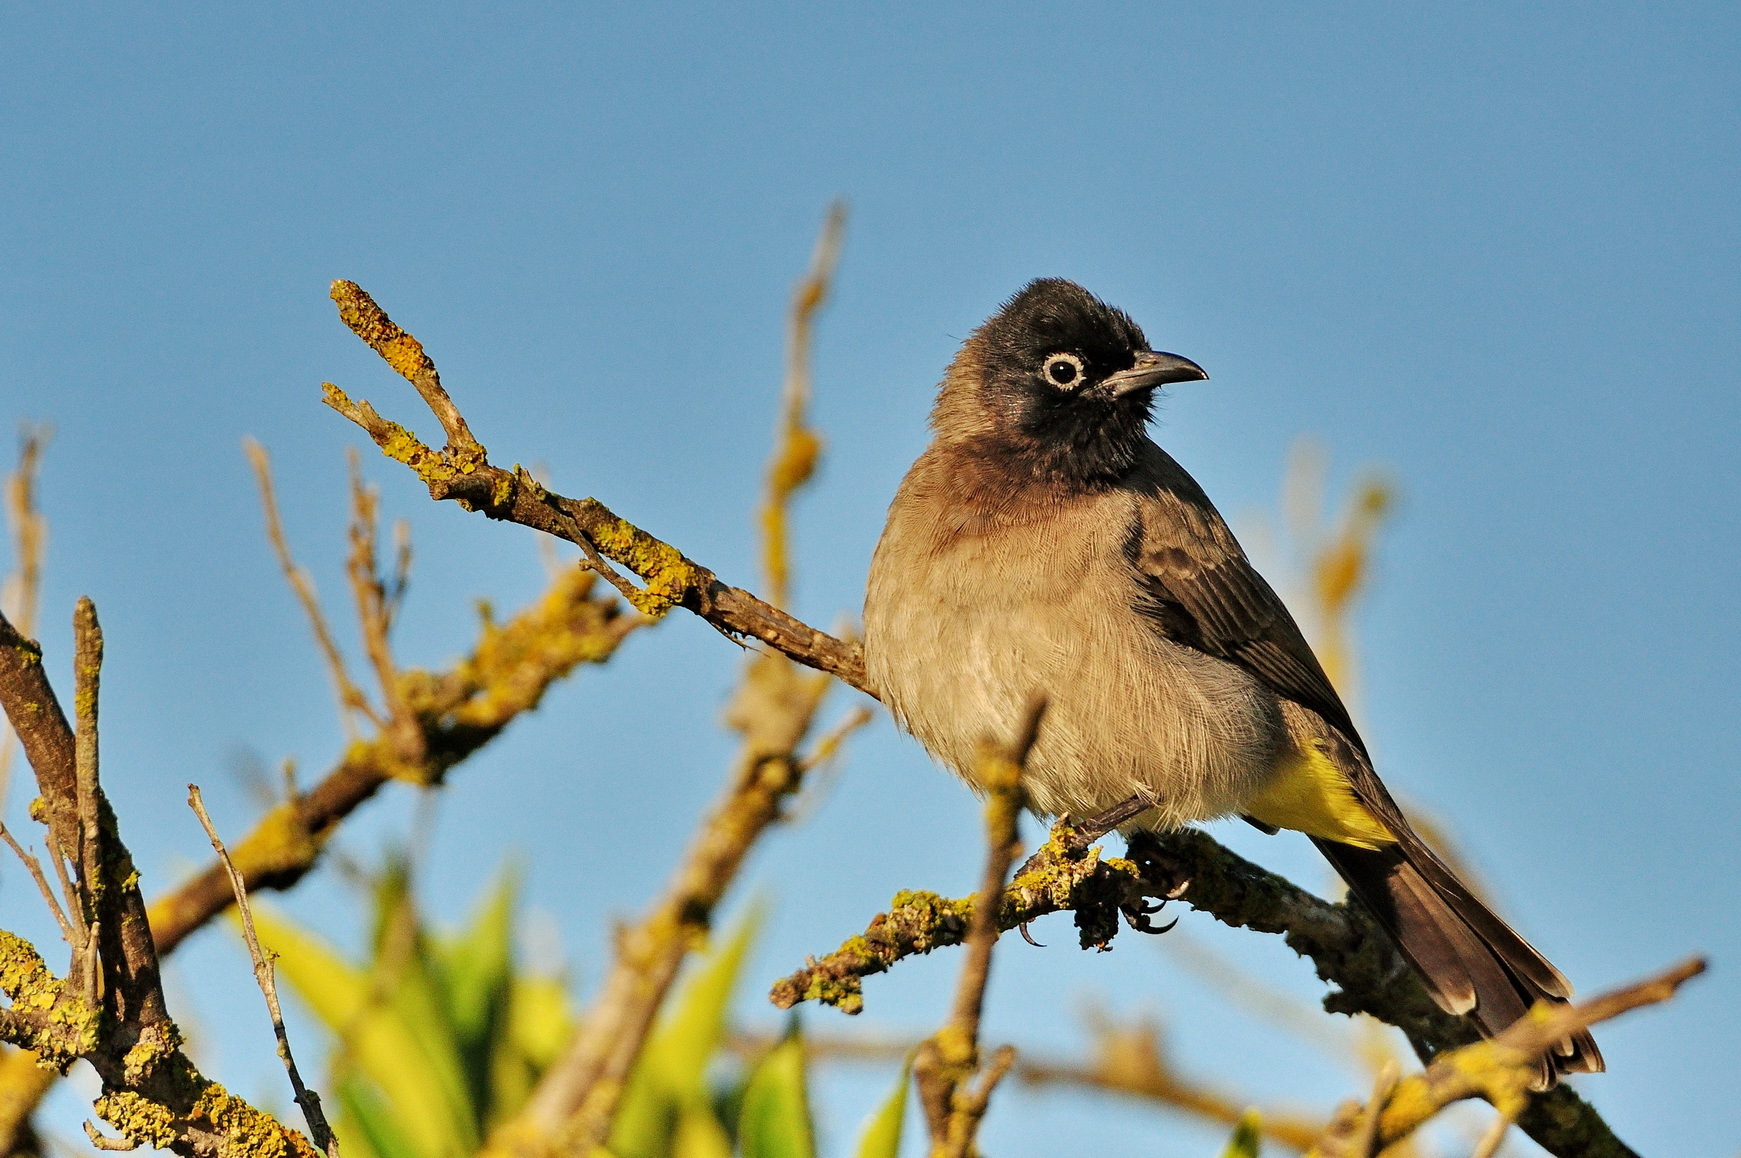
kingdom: Animalia
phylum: Chordata
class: Aves
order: Passeriformes
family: Pycnonotidae
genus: Pycnonotus
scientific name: Pycnonotus xanthopygos
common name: White-spectacled bulbul
